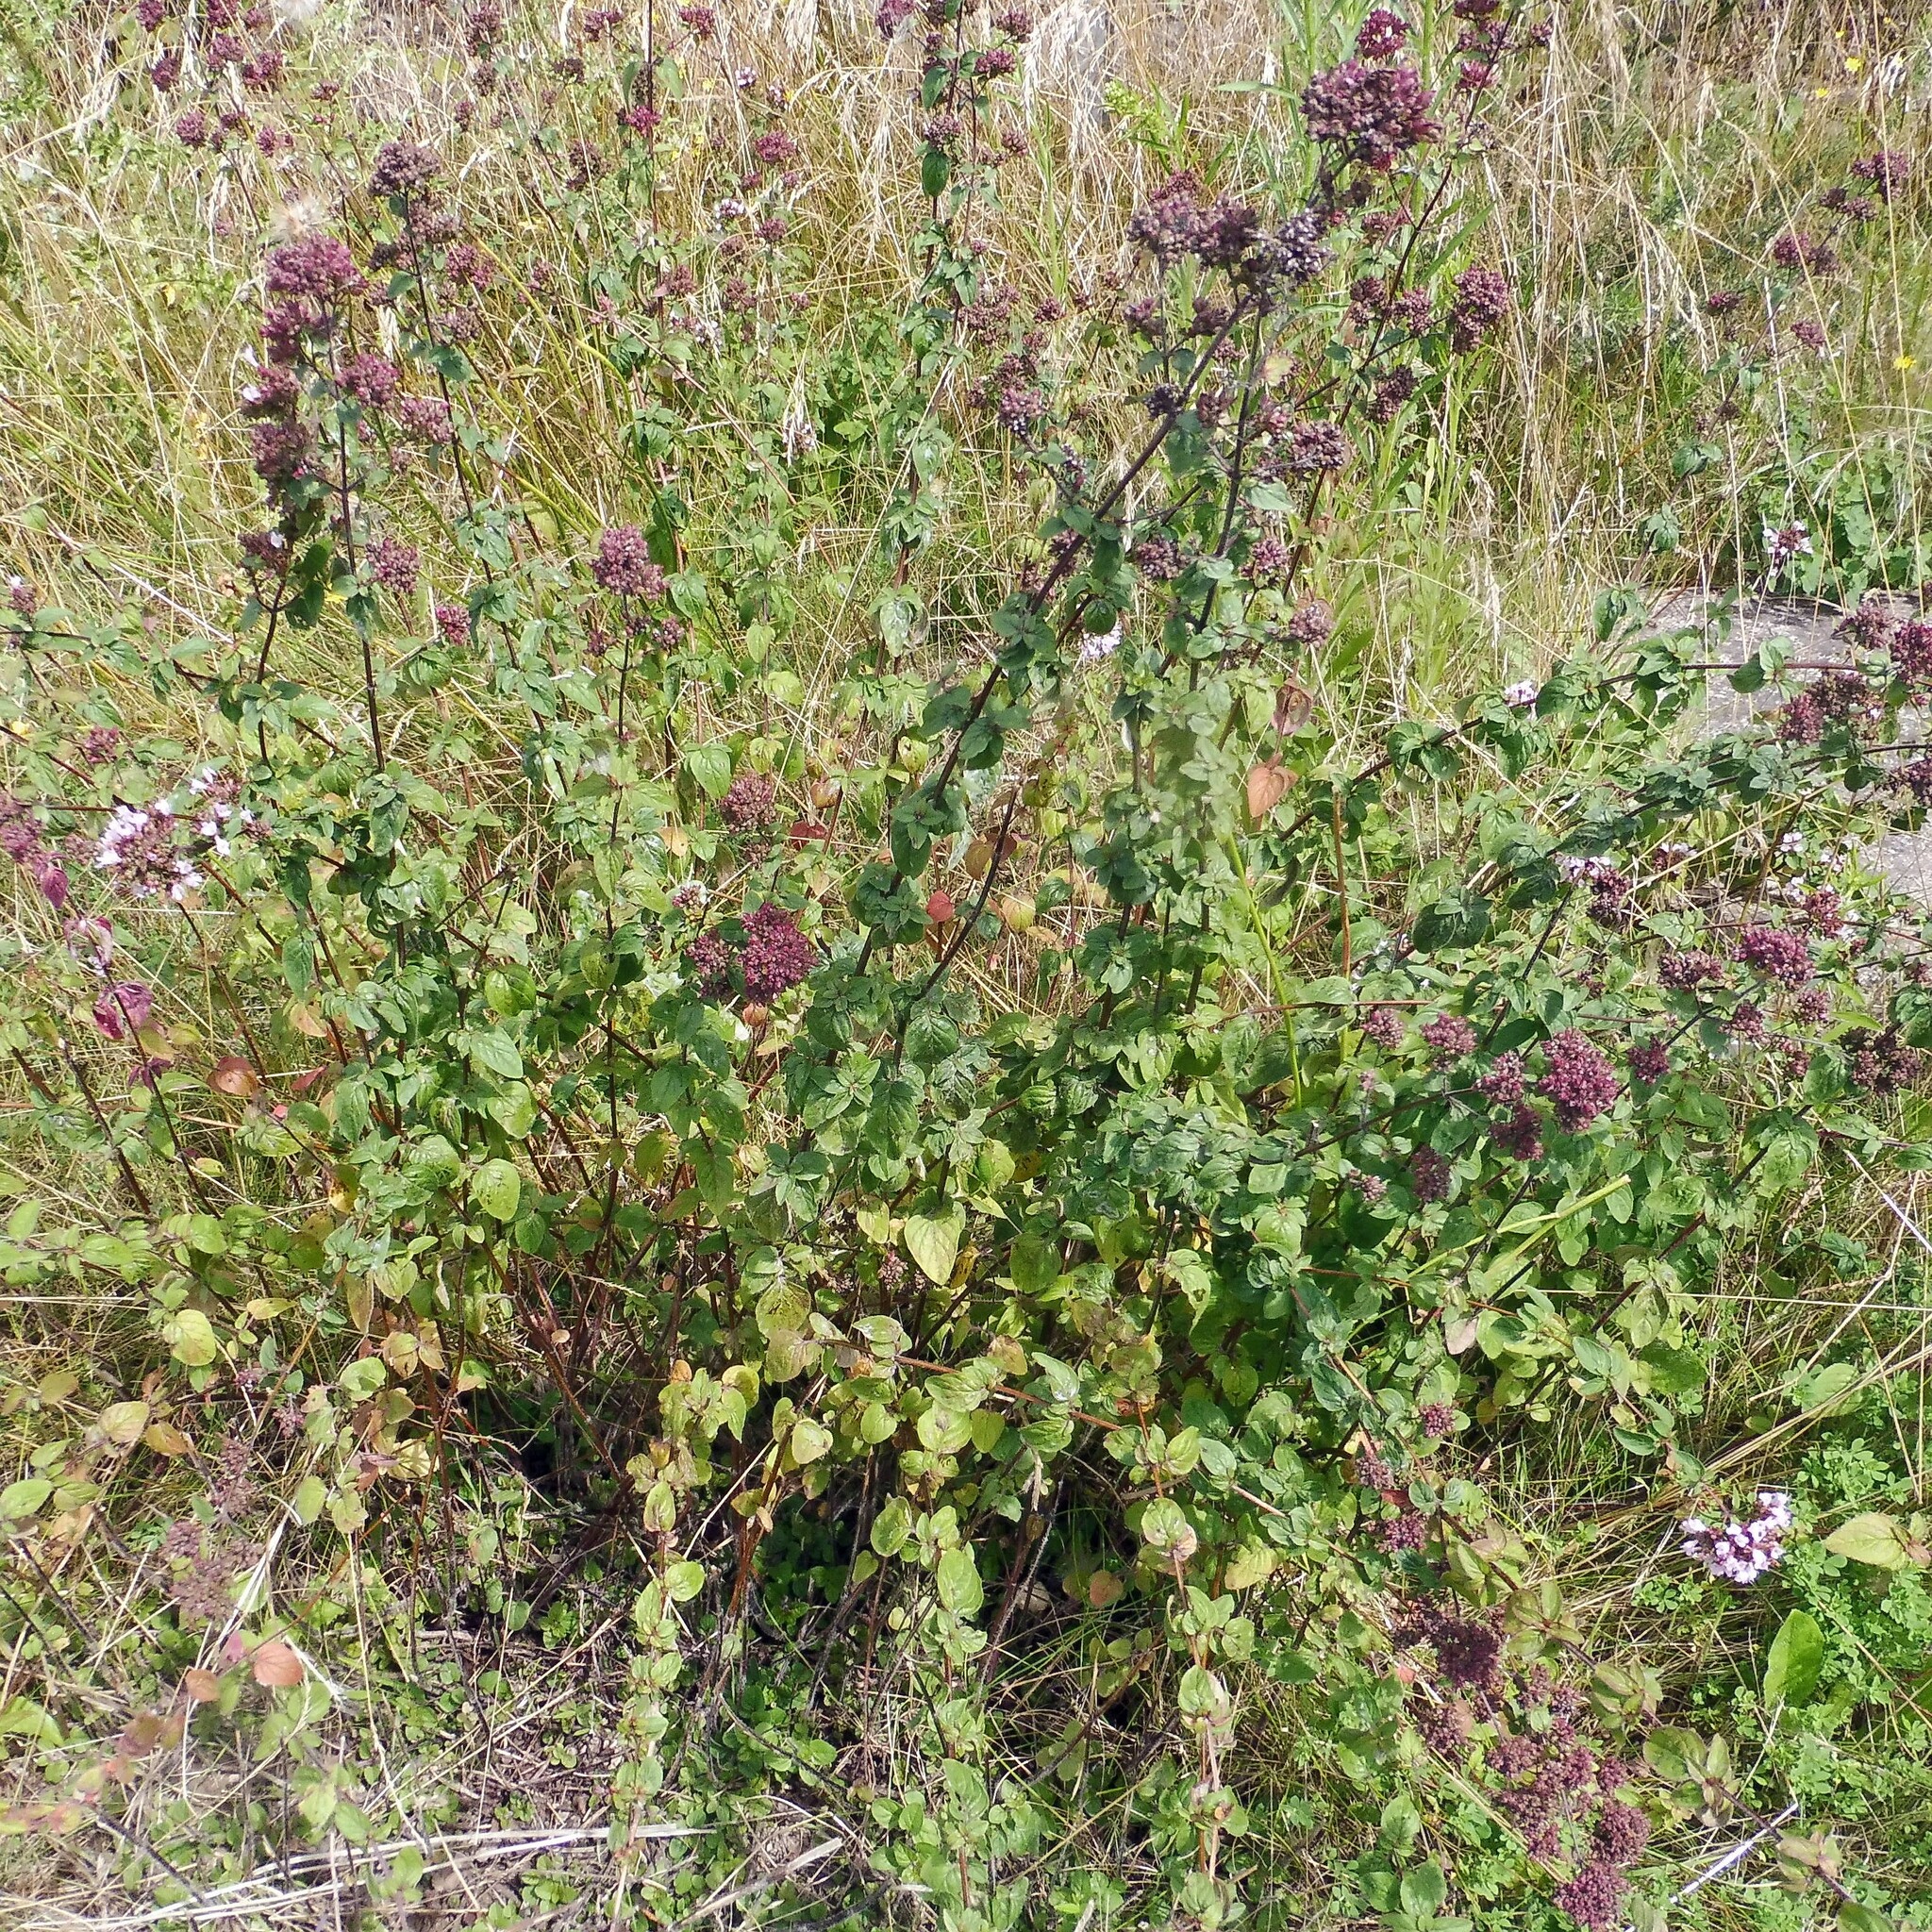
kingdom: Plantae
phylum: Tracheophyta
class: Magnoliopsida
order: Lamiales
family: Lamiaceae
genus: Origanum
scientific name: Origanum vulgare
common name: Wild marjoram
